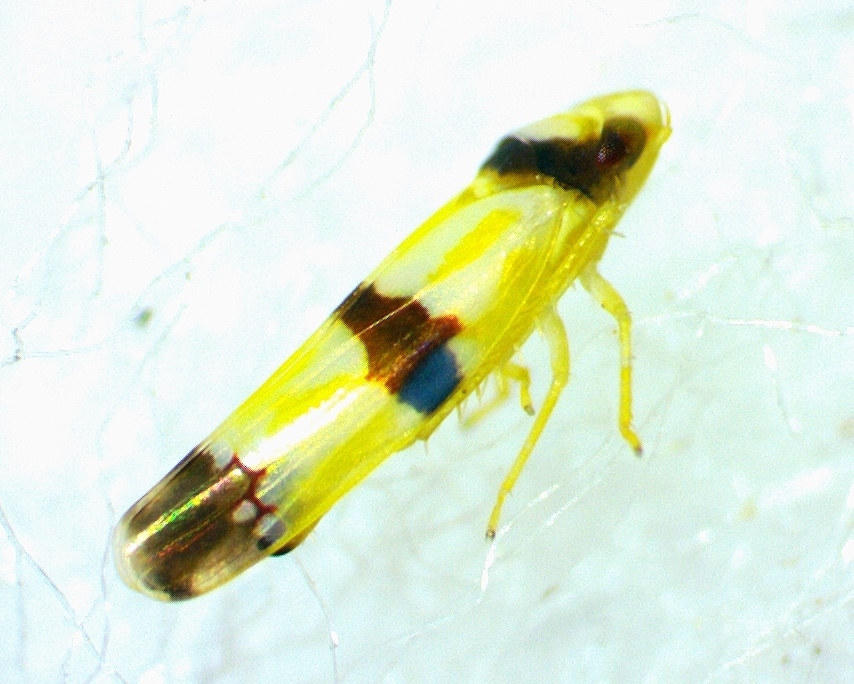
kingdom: Animalia
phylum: Arthropoda
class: Insecta
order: Hemiptera
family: Cicadellidae
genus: Erythroneura
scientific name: Erythroneura calycula
